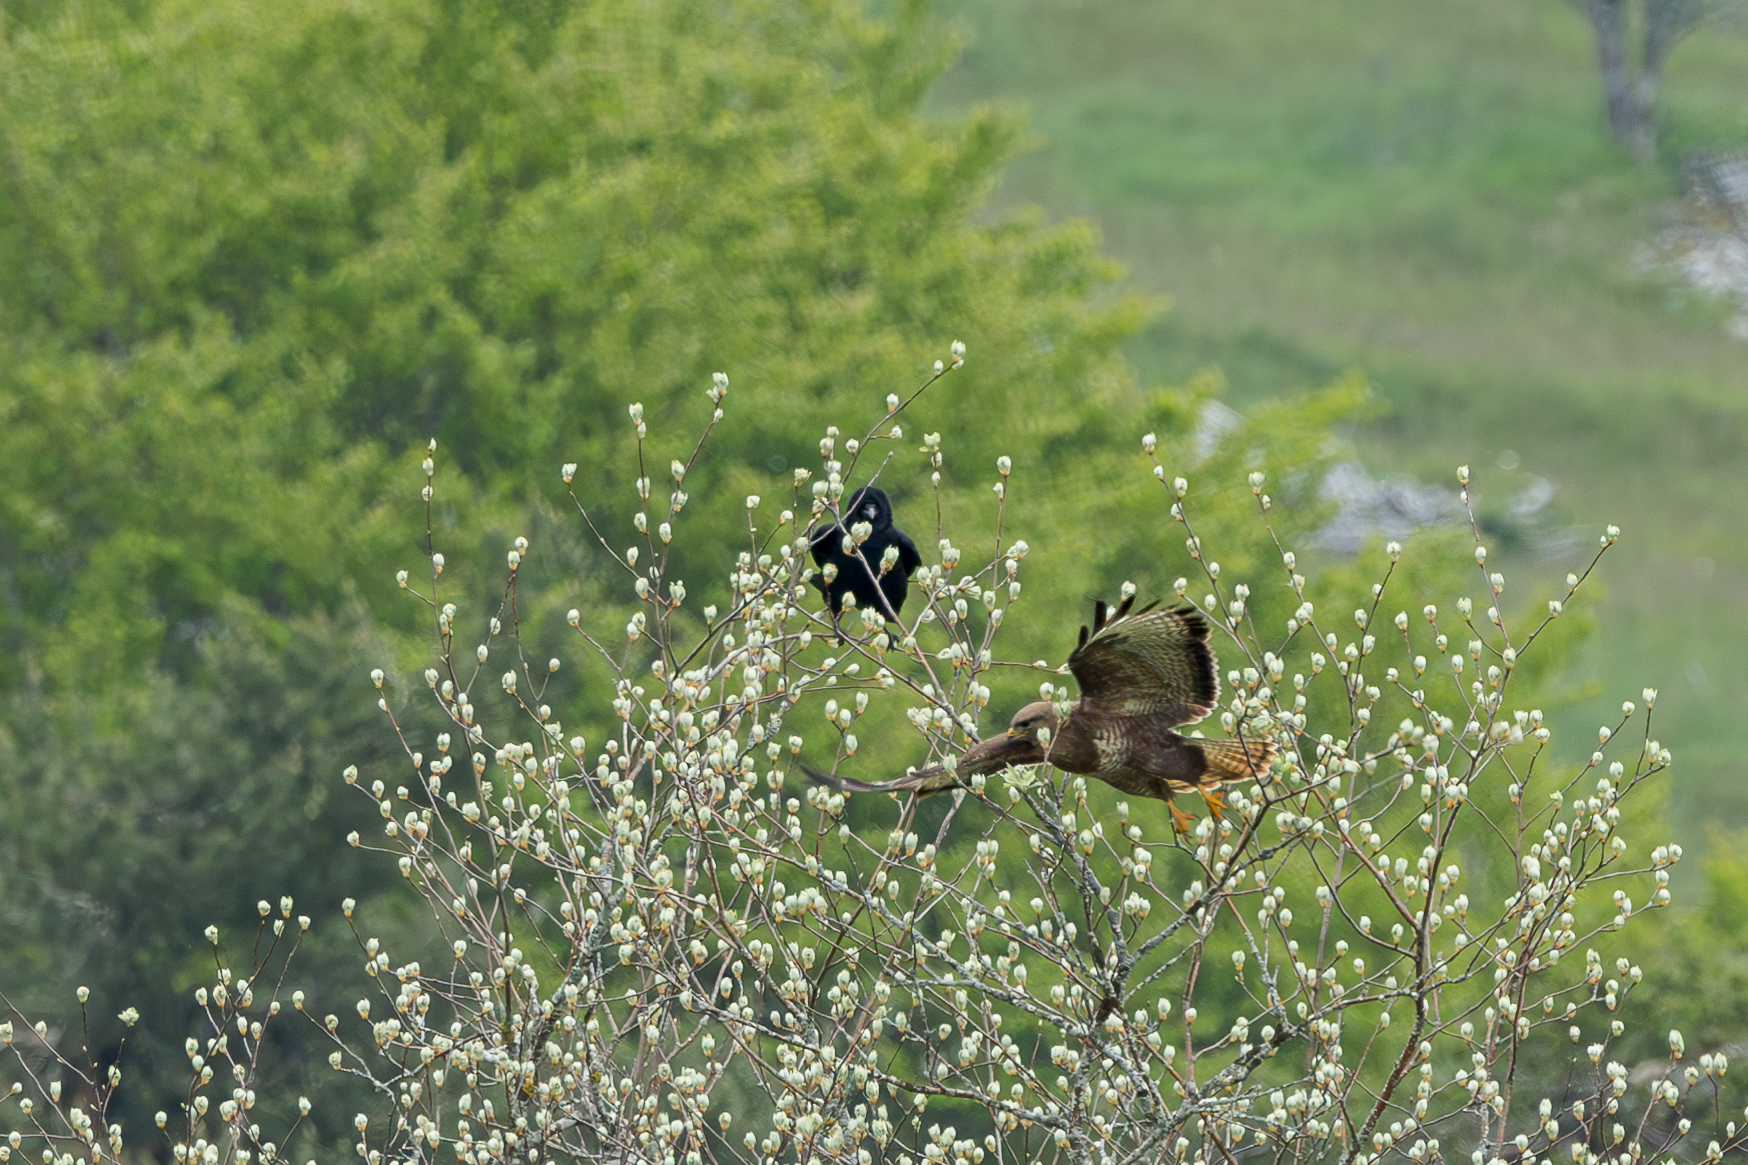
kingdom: Animalia
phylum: Chordata
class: Aves
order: Accipitriformes
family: Accipitridae
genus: Buteo
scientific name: Buteo buteo
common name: Common buzzard
